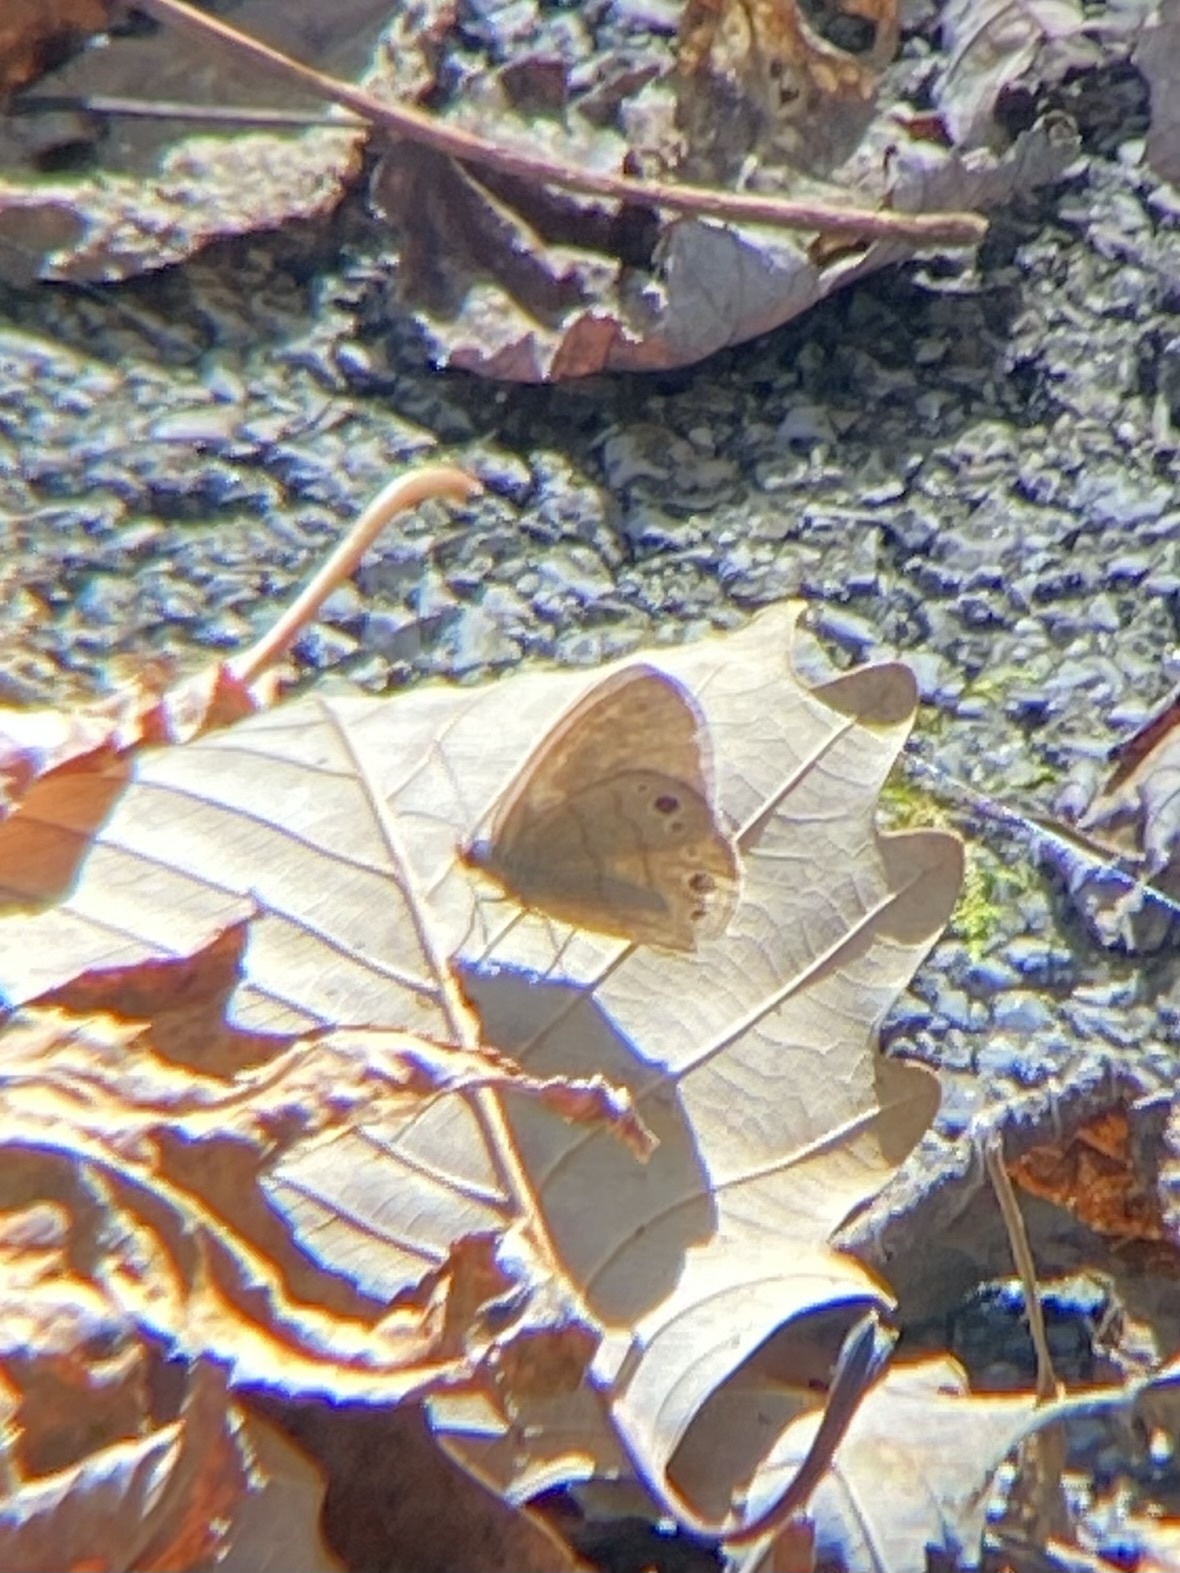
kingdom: Animalia
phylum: Arthropoda
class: Insecta
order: Lepidoptera
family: Nymphalidae
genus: Hermeuptychia
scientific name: Hermeuptychia hermes
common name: Hermes satyr
